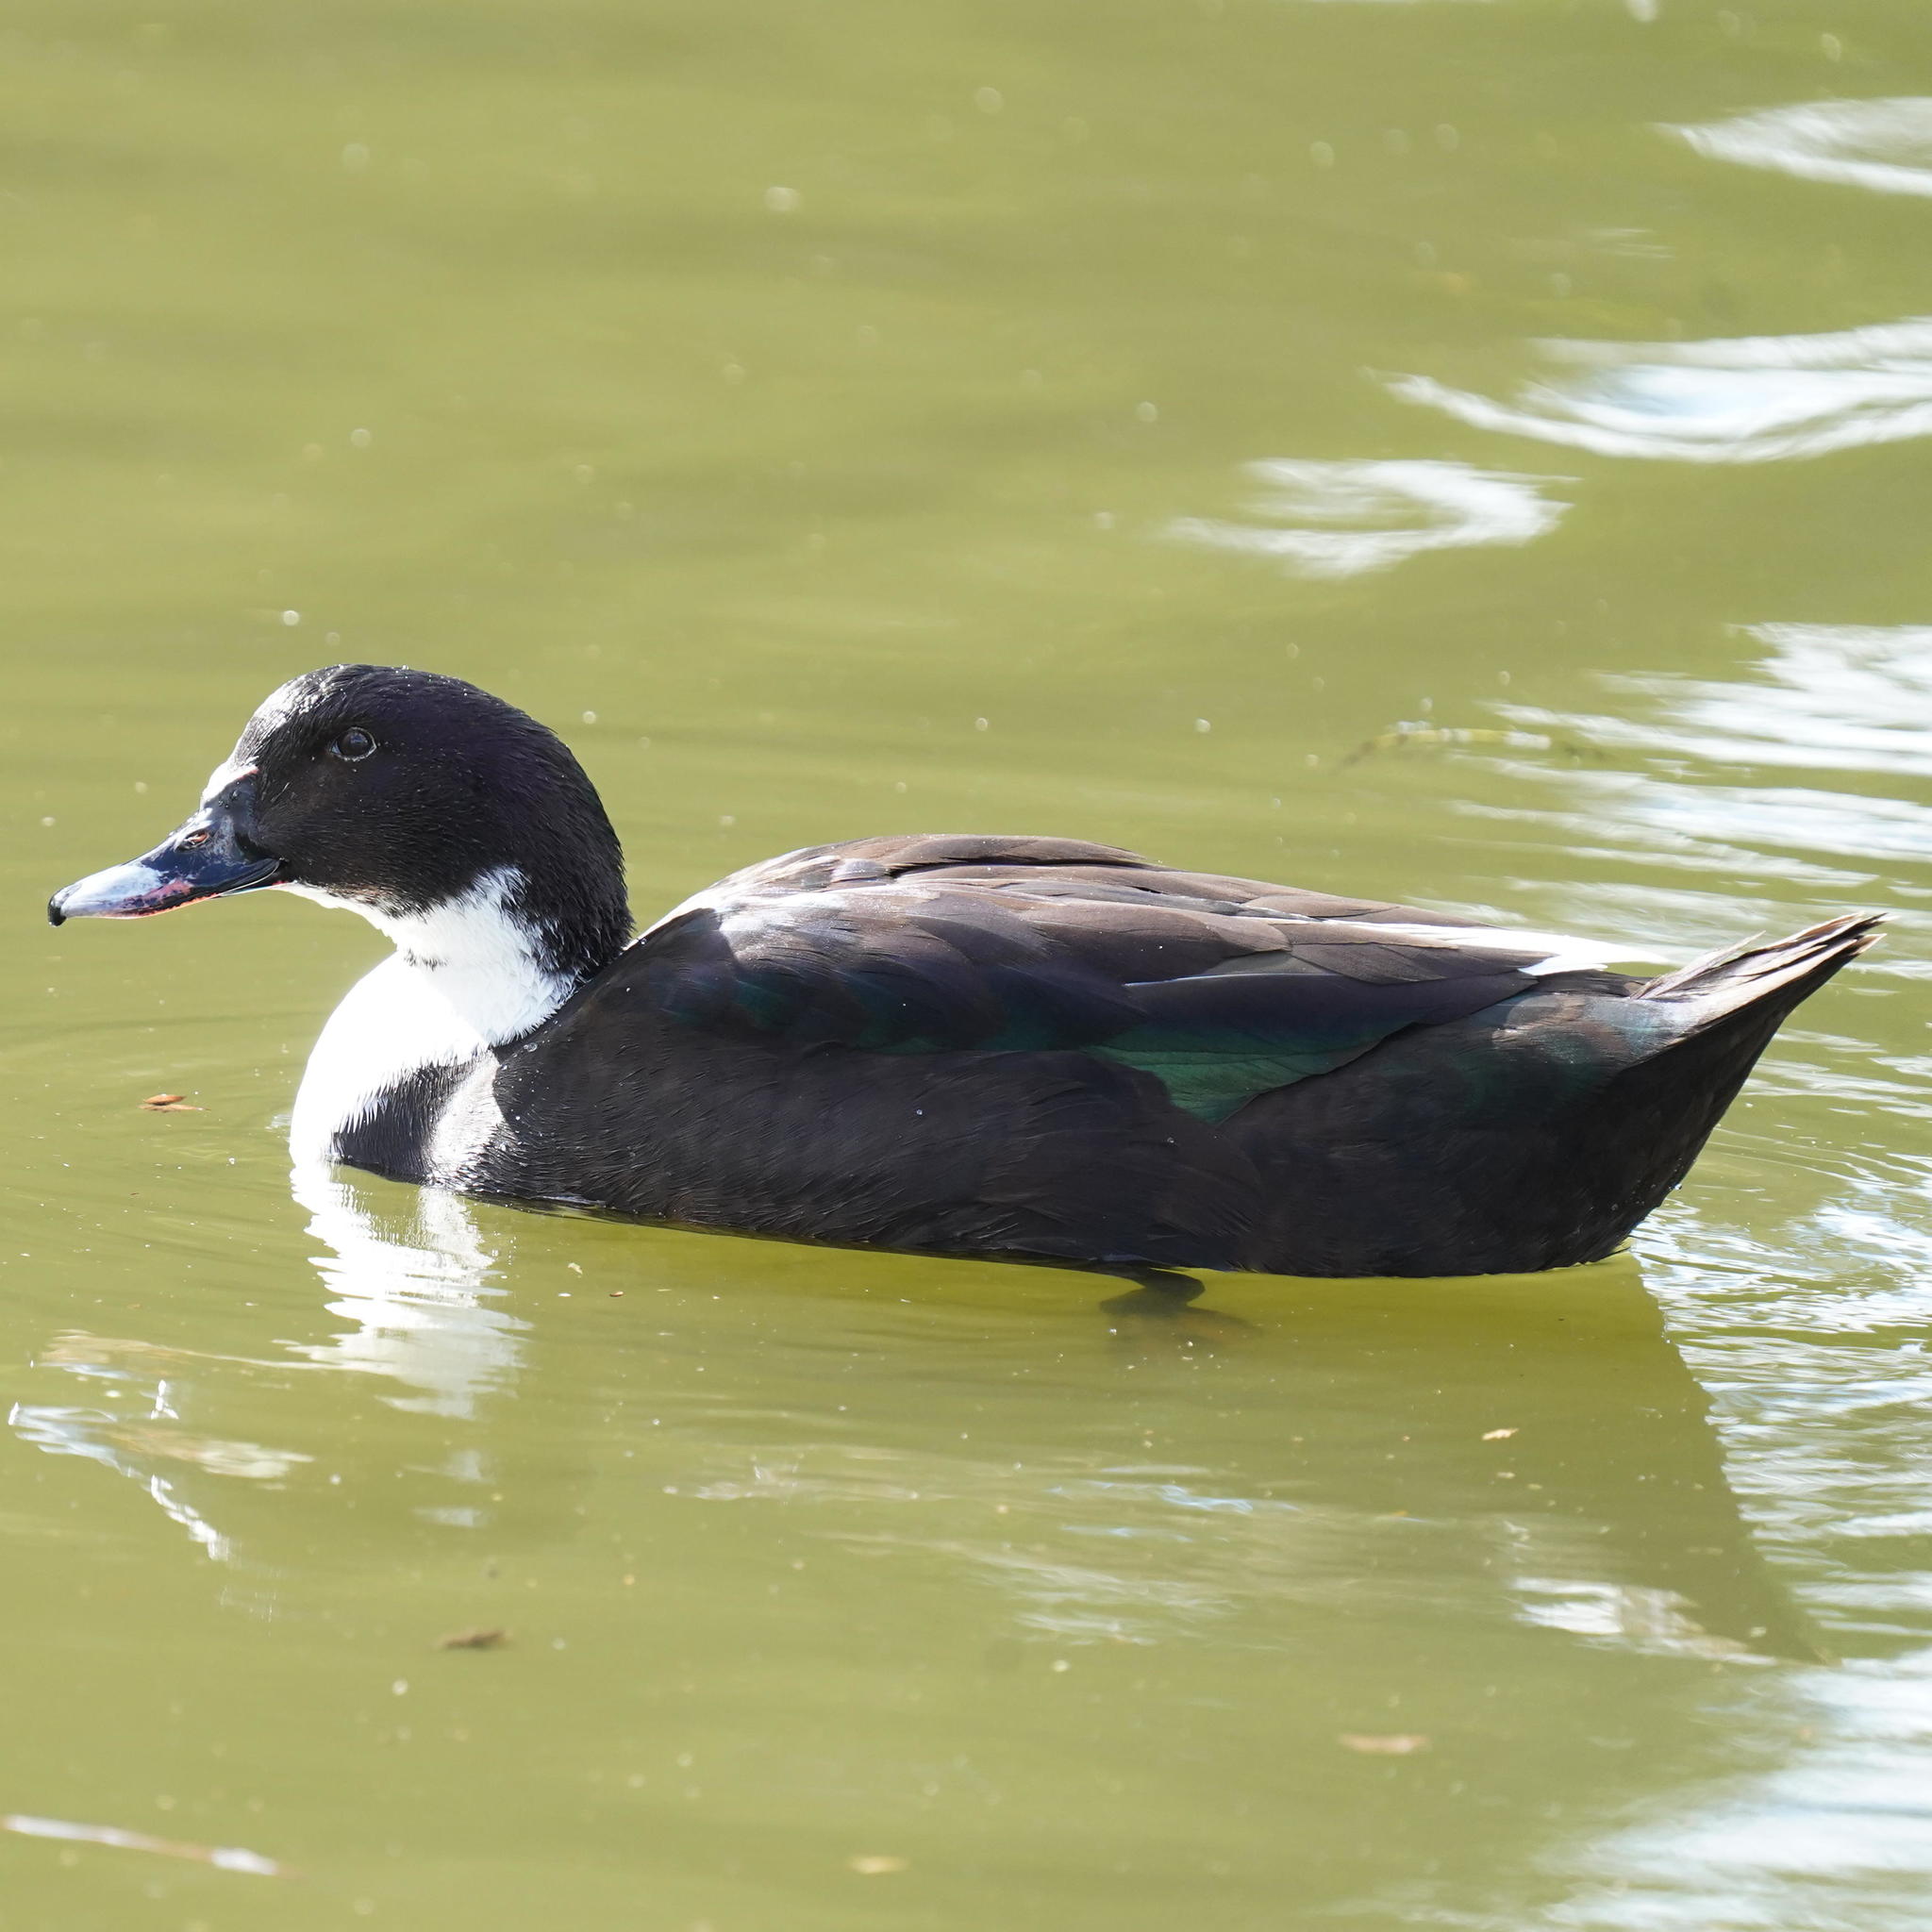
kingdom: Animalia
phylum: Chordata
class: Aves
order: Anseriformes
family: Anatidae
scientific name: Anatidae
